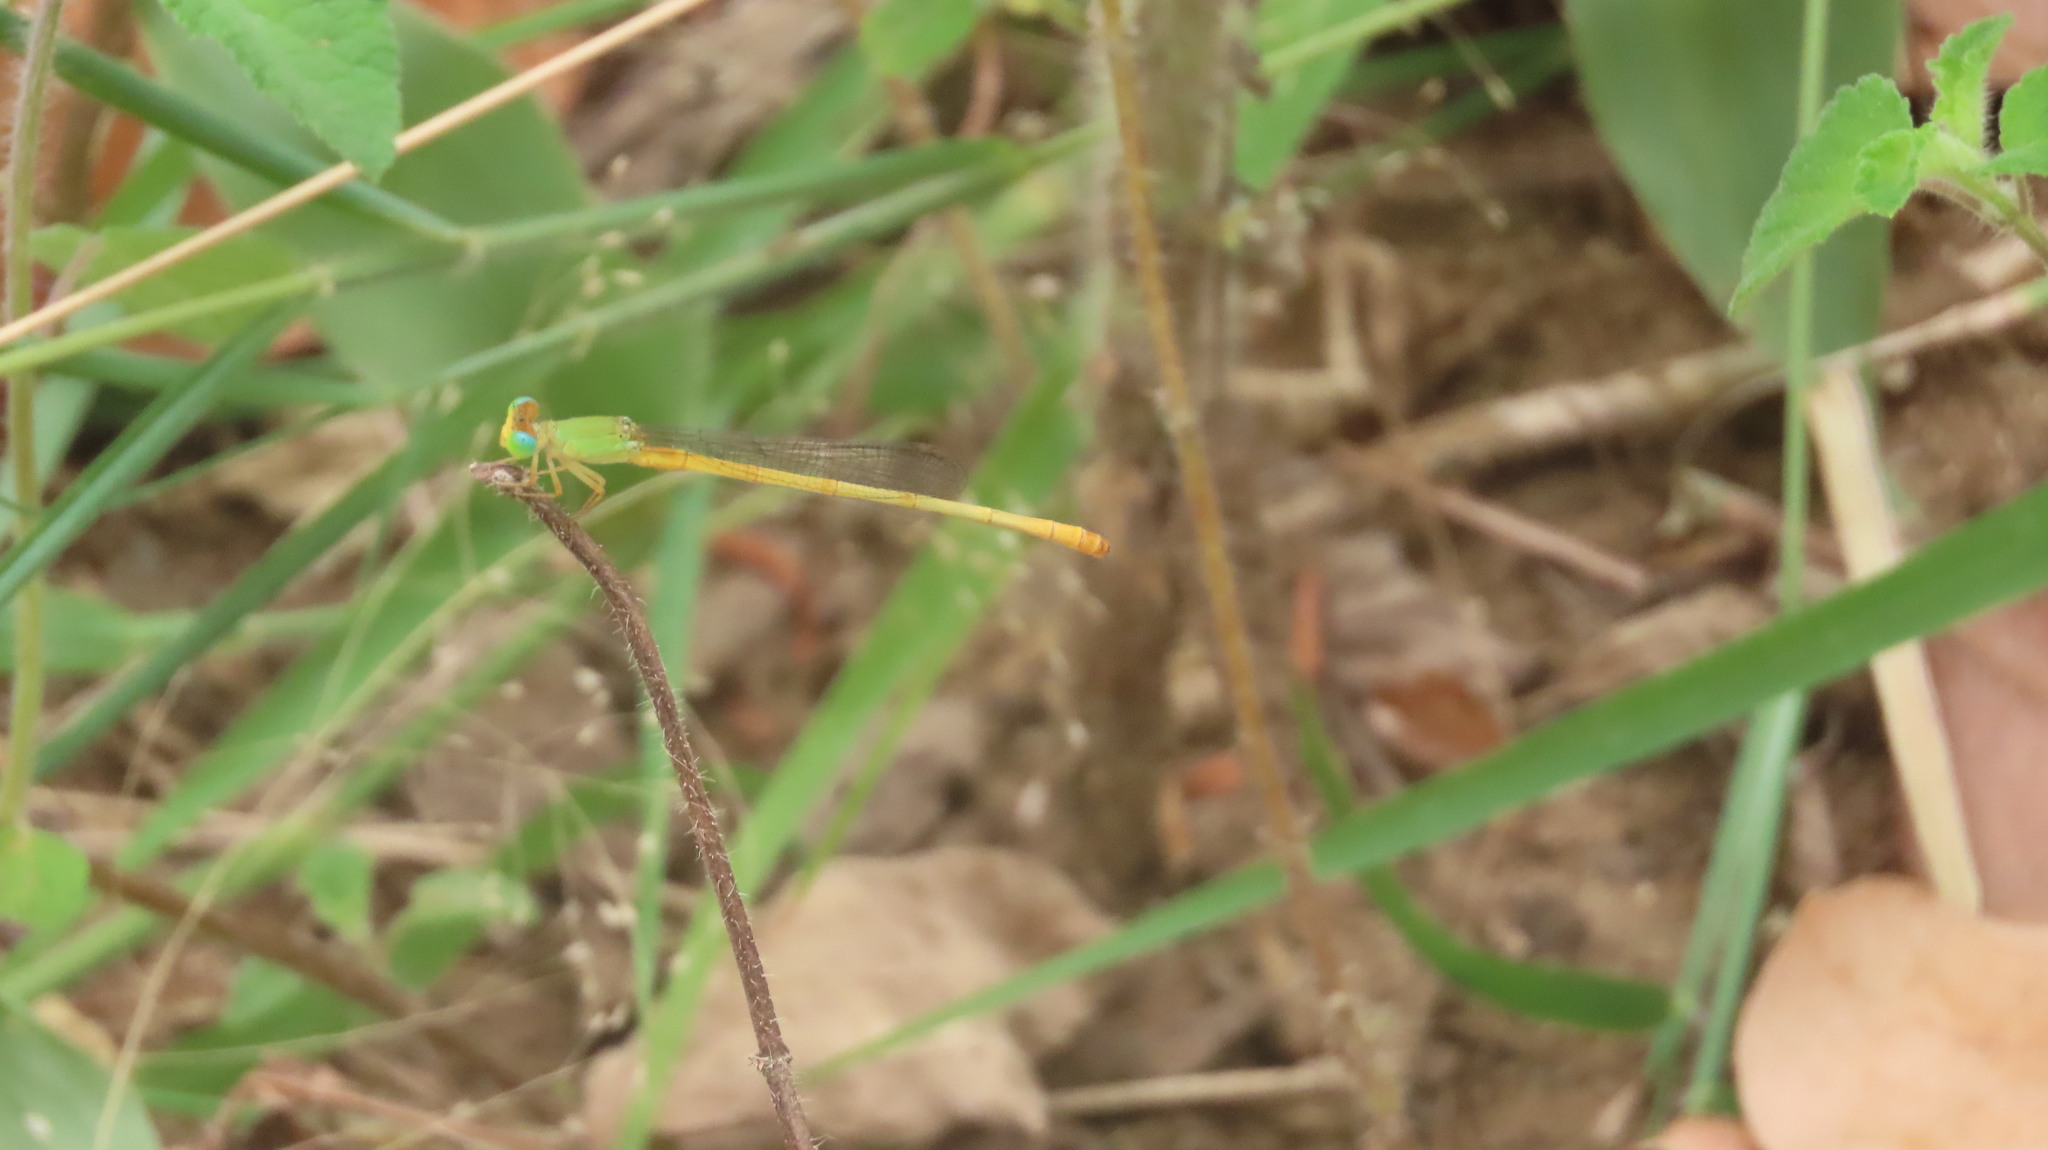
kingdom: Animalia
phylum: Arthropoda
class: Insecta
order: Odonata
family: Coenagrionidae
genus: Ceriagrion
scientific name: Ceriagrion coromandelianum
